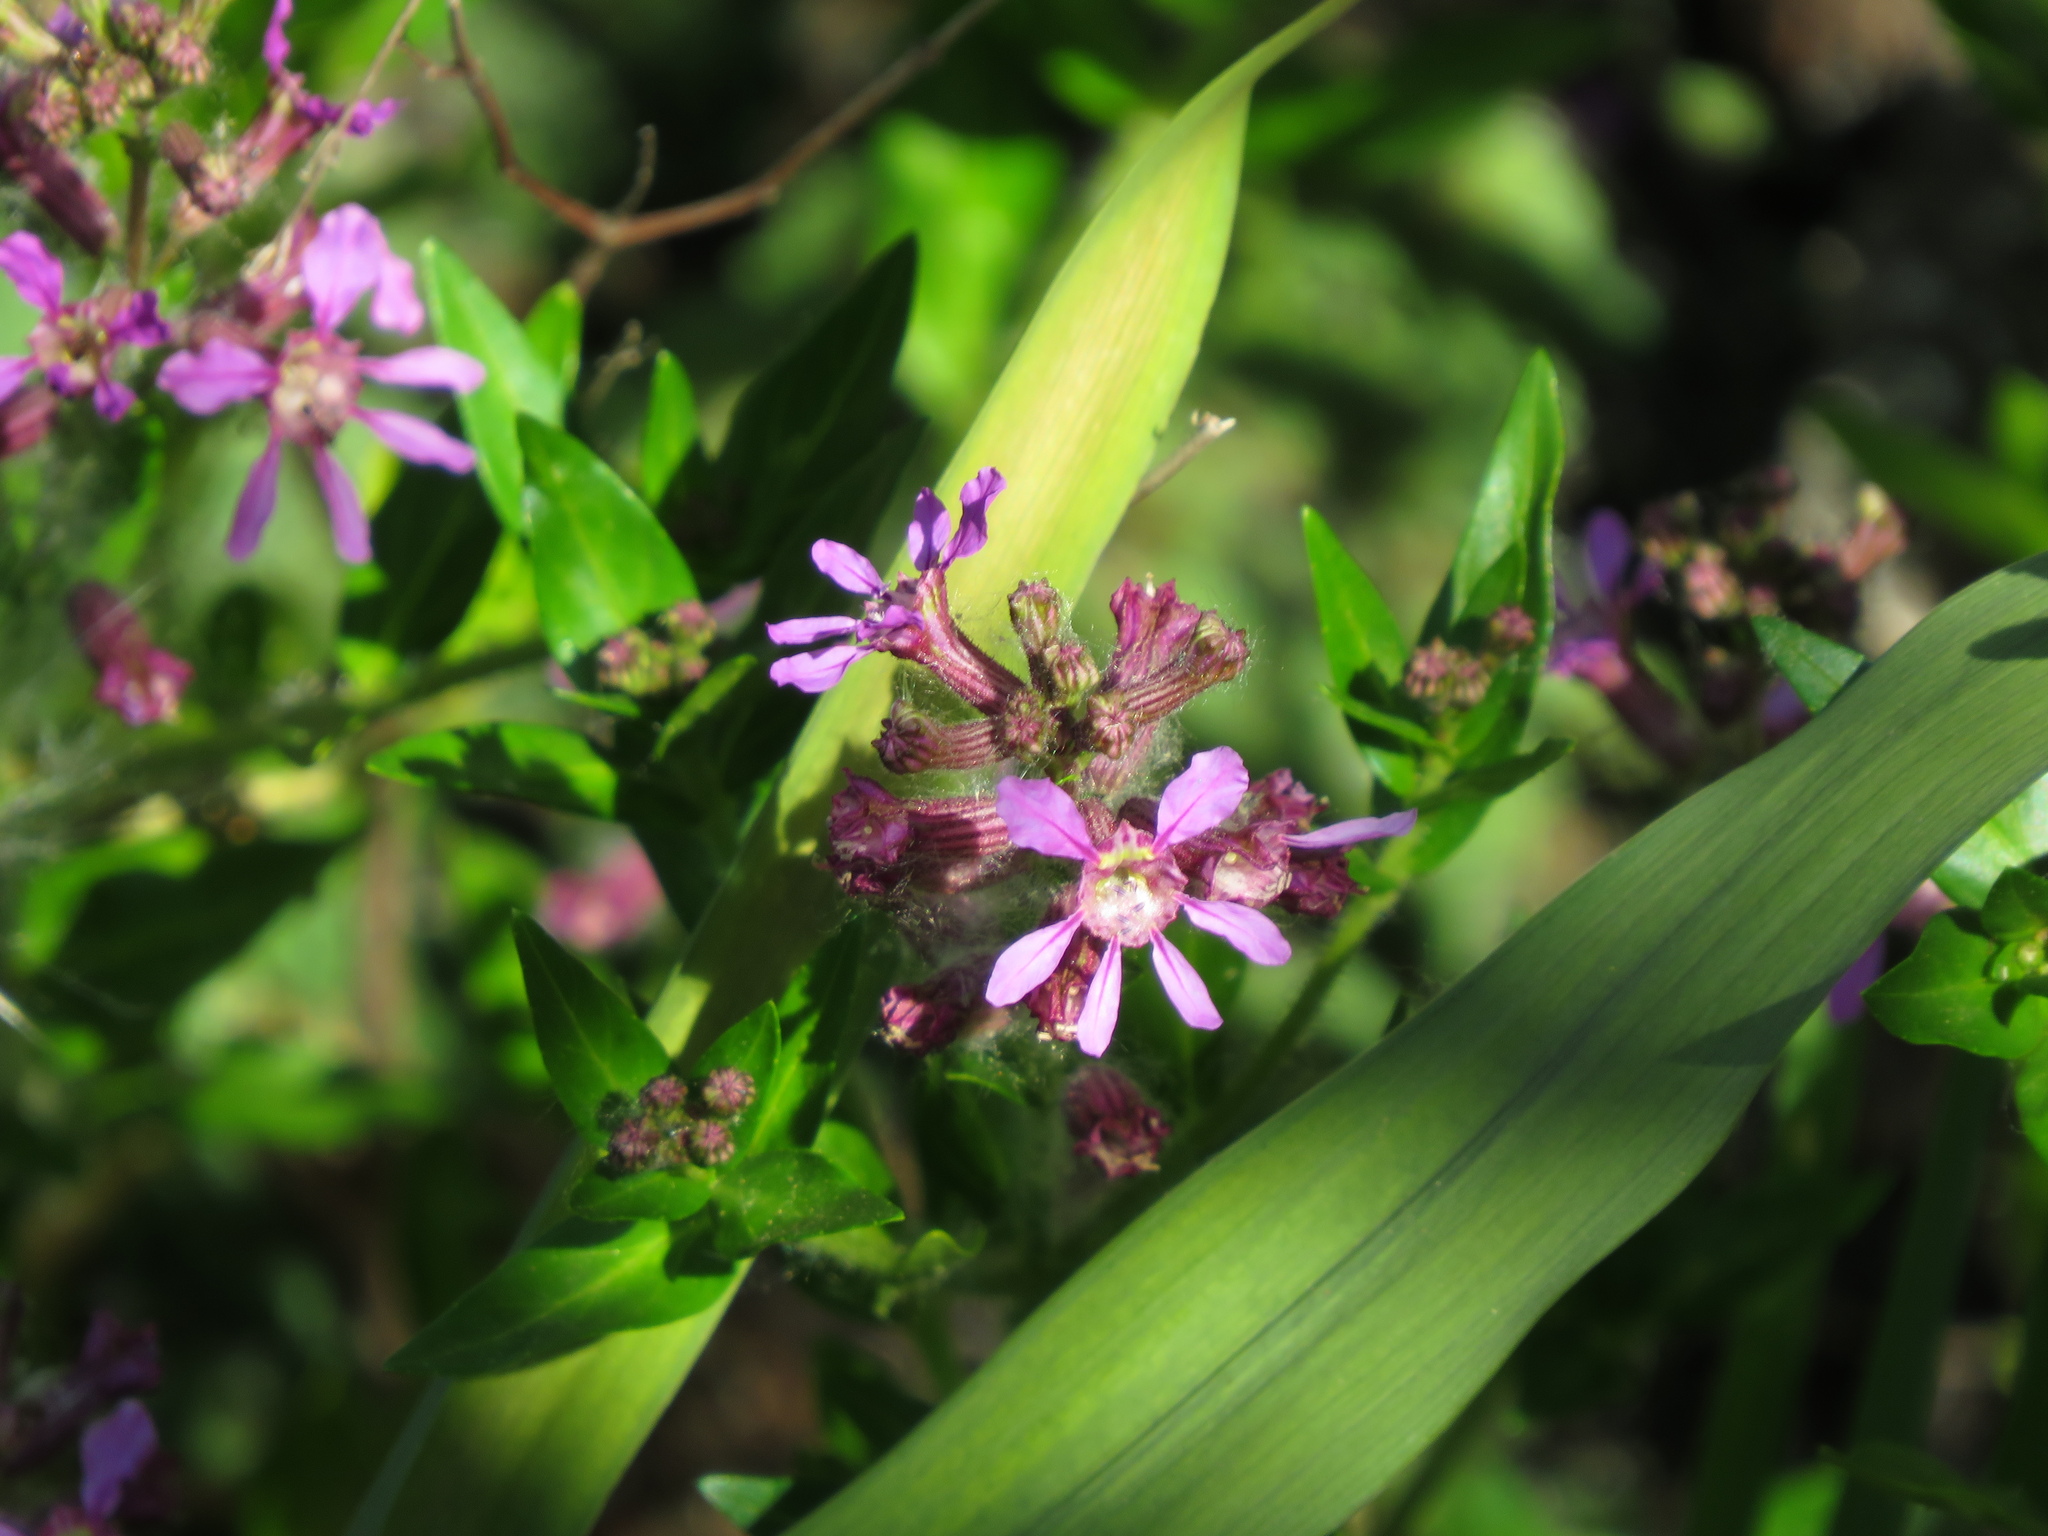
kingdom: Plantae
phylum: Tracheophyta
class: Magnoliopsida
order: Myrtales
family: Lythraceae
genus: Cuphea
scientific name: Cuphea fruticosa
